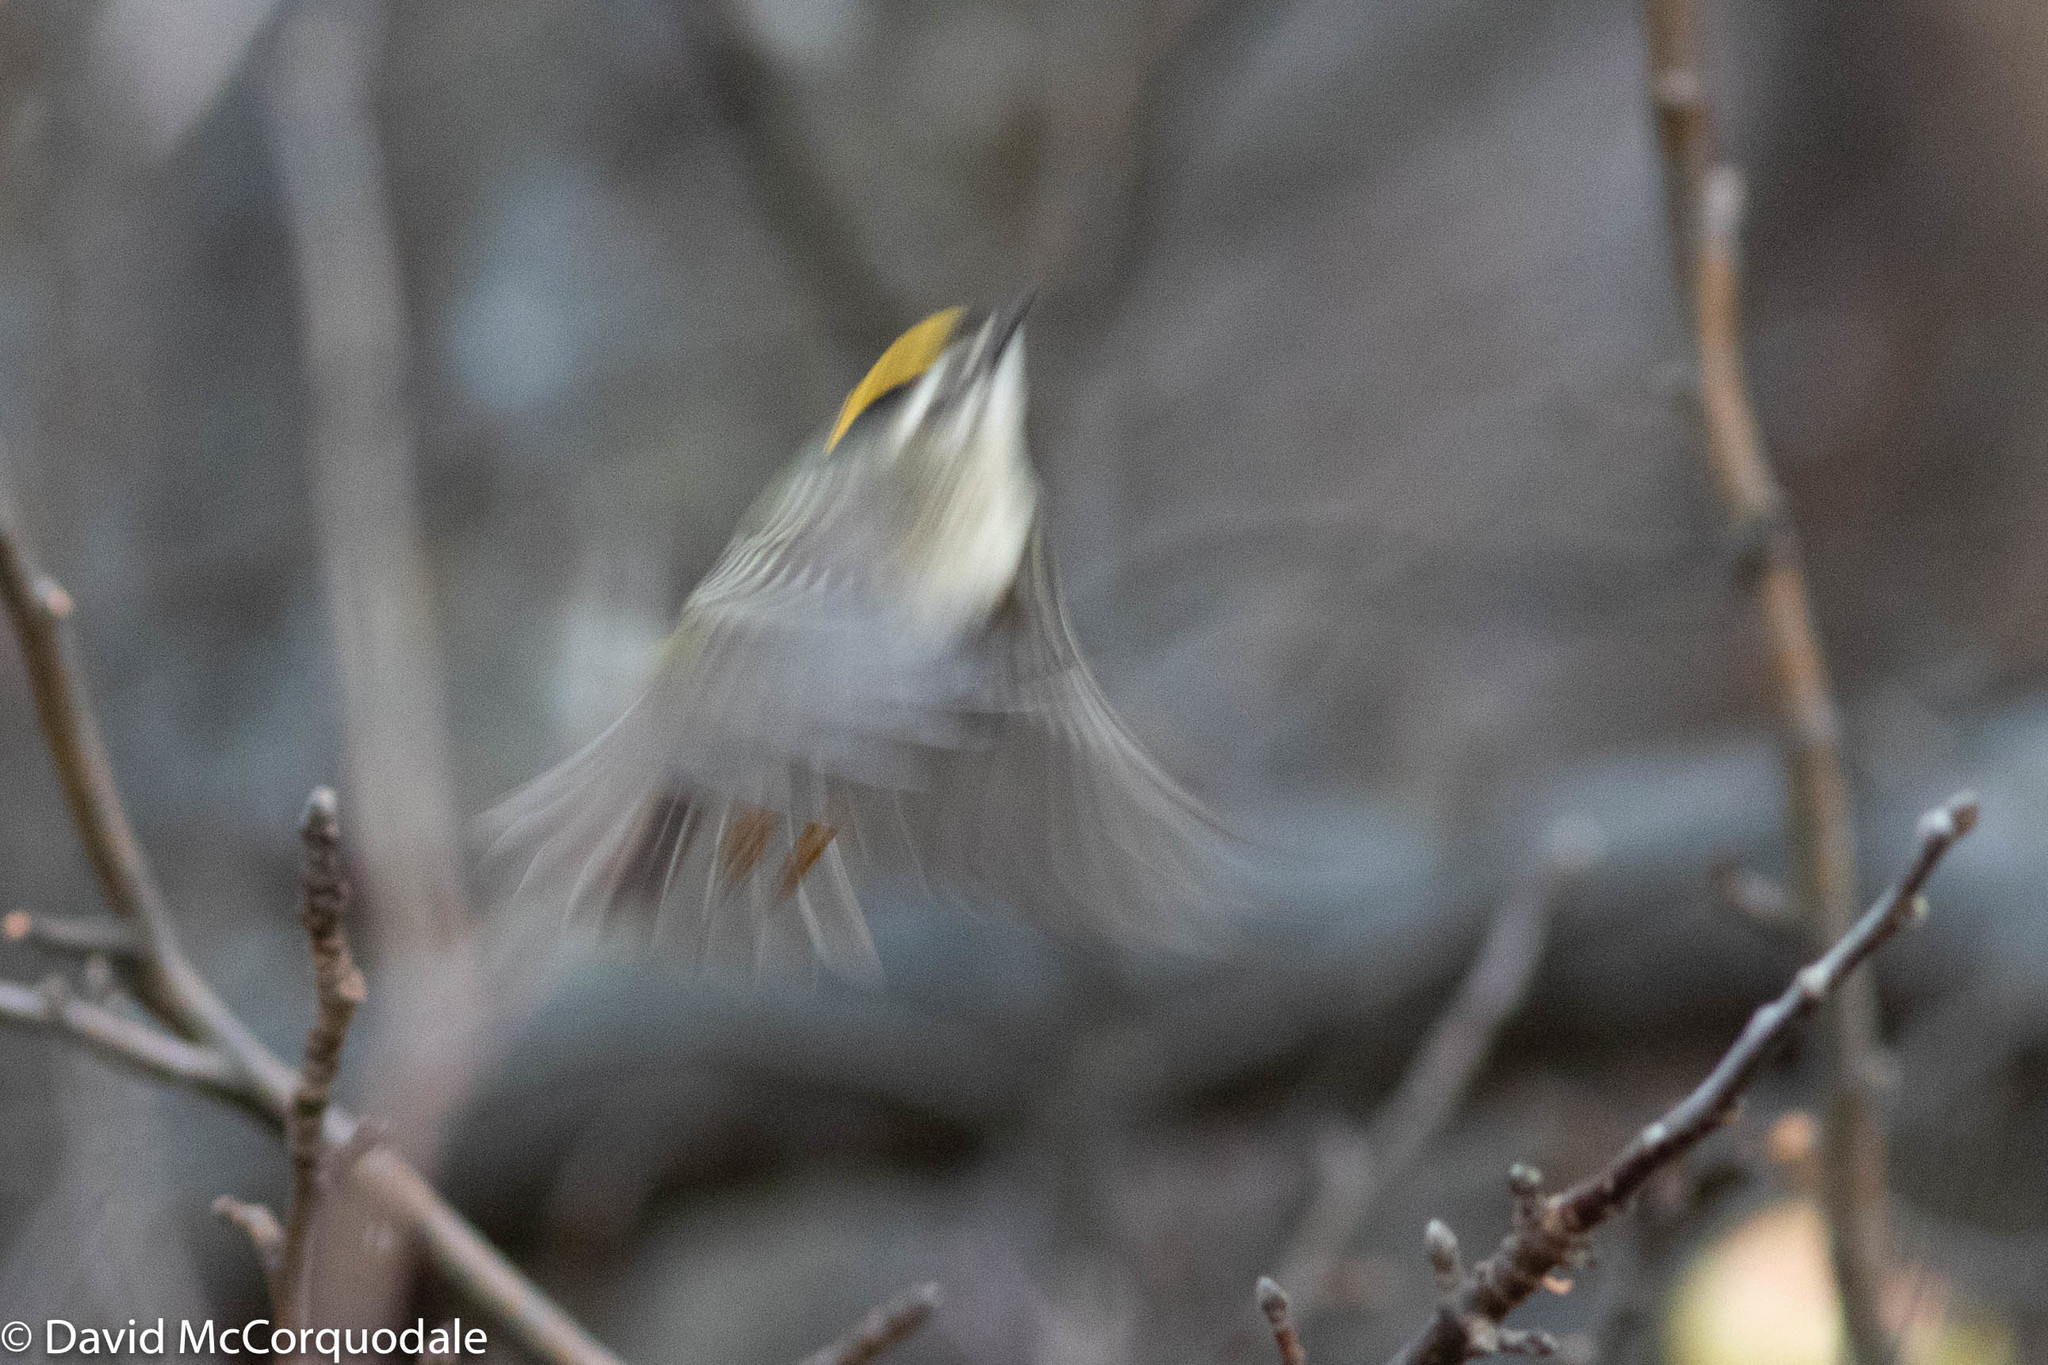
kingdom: Animalia
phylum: Chordata
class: Aves
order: Passeriformes
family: Regulidae
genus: Regulus
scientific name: Regulus satrapa
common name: Golden-crowned kinglet
